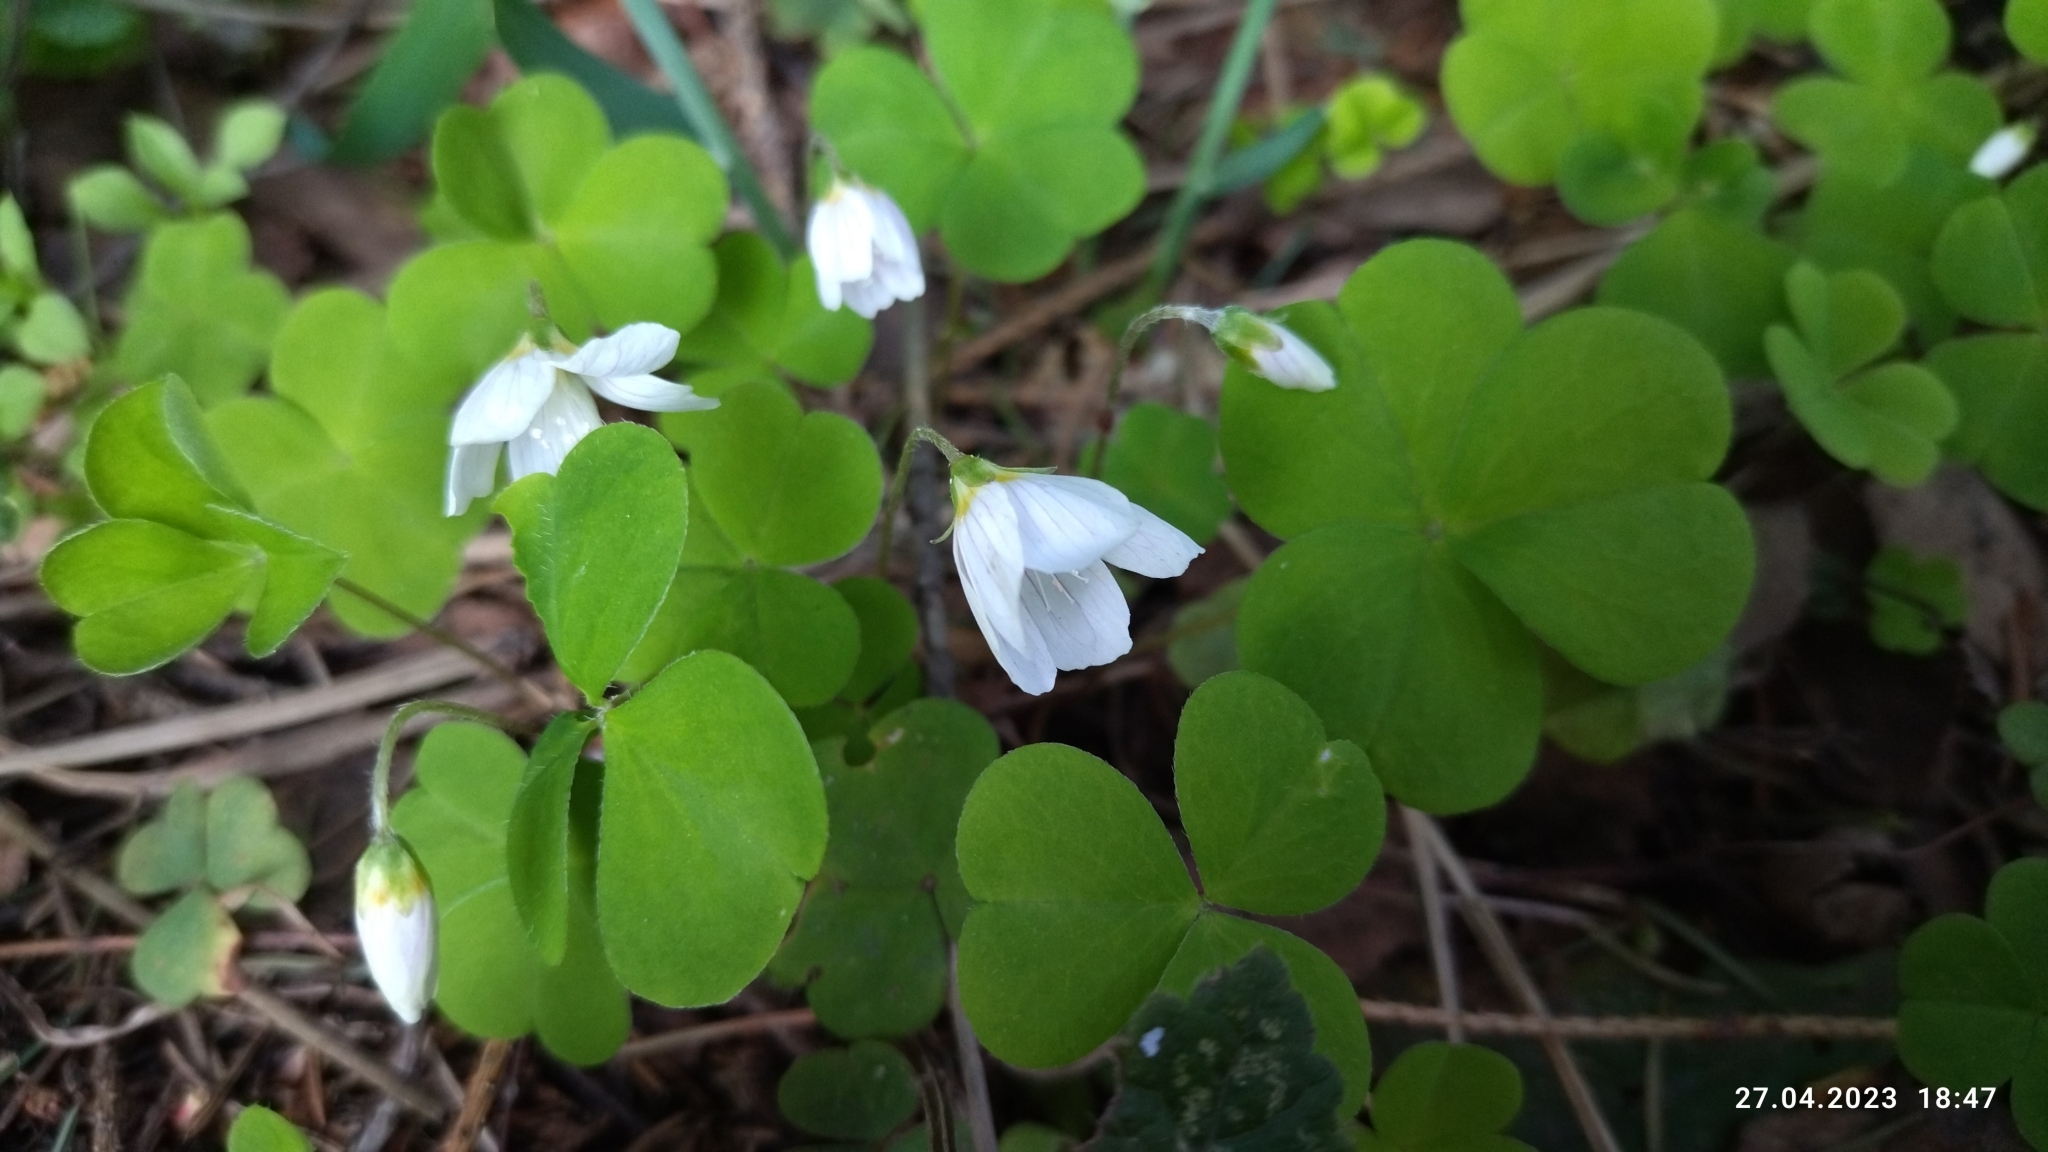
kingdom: Plantae
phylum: Tracheophyta
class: Magnoliopsida
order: Oxalidales
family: Oxalidaceae
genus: Oxalis
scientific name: Oxalis acetosella
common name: Wood-sorrel
